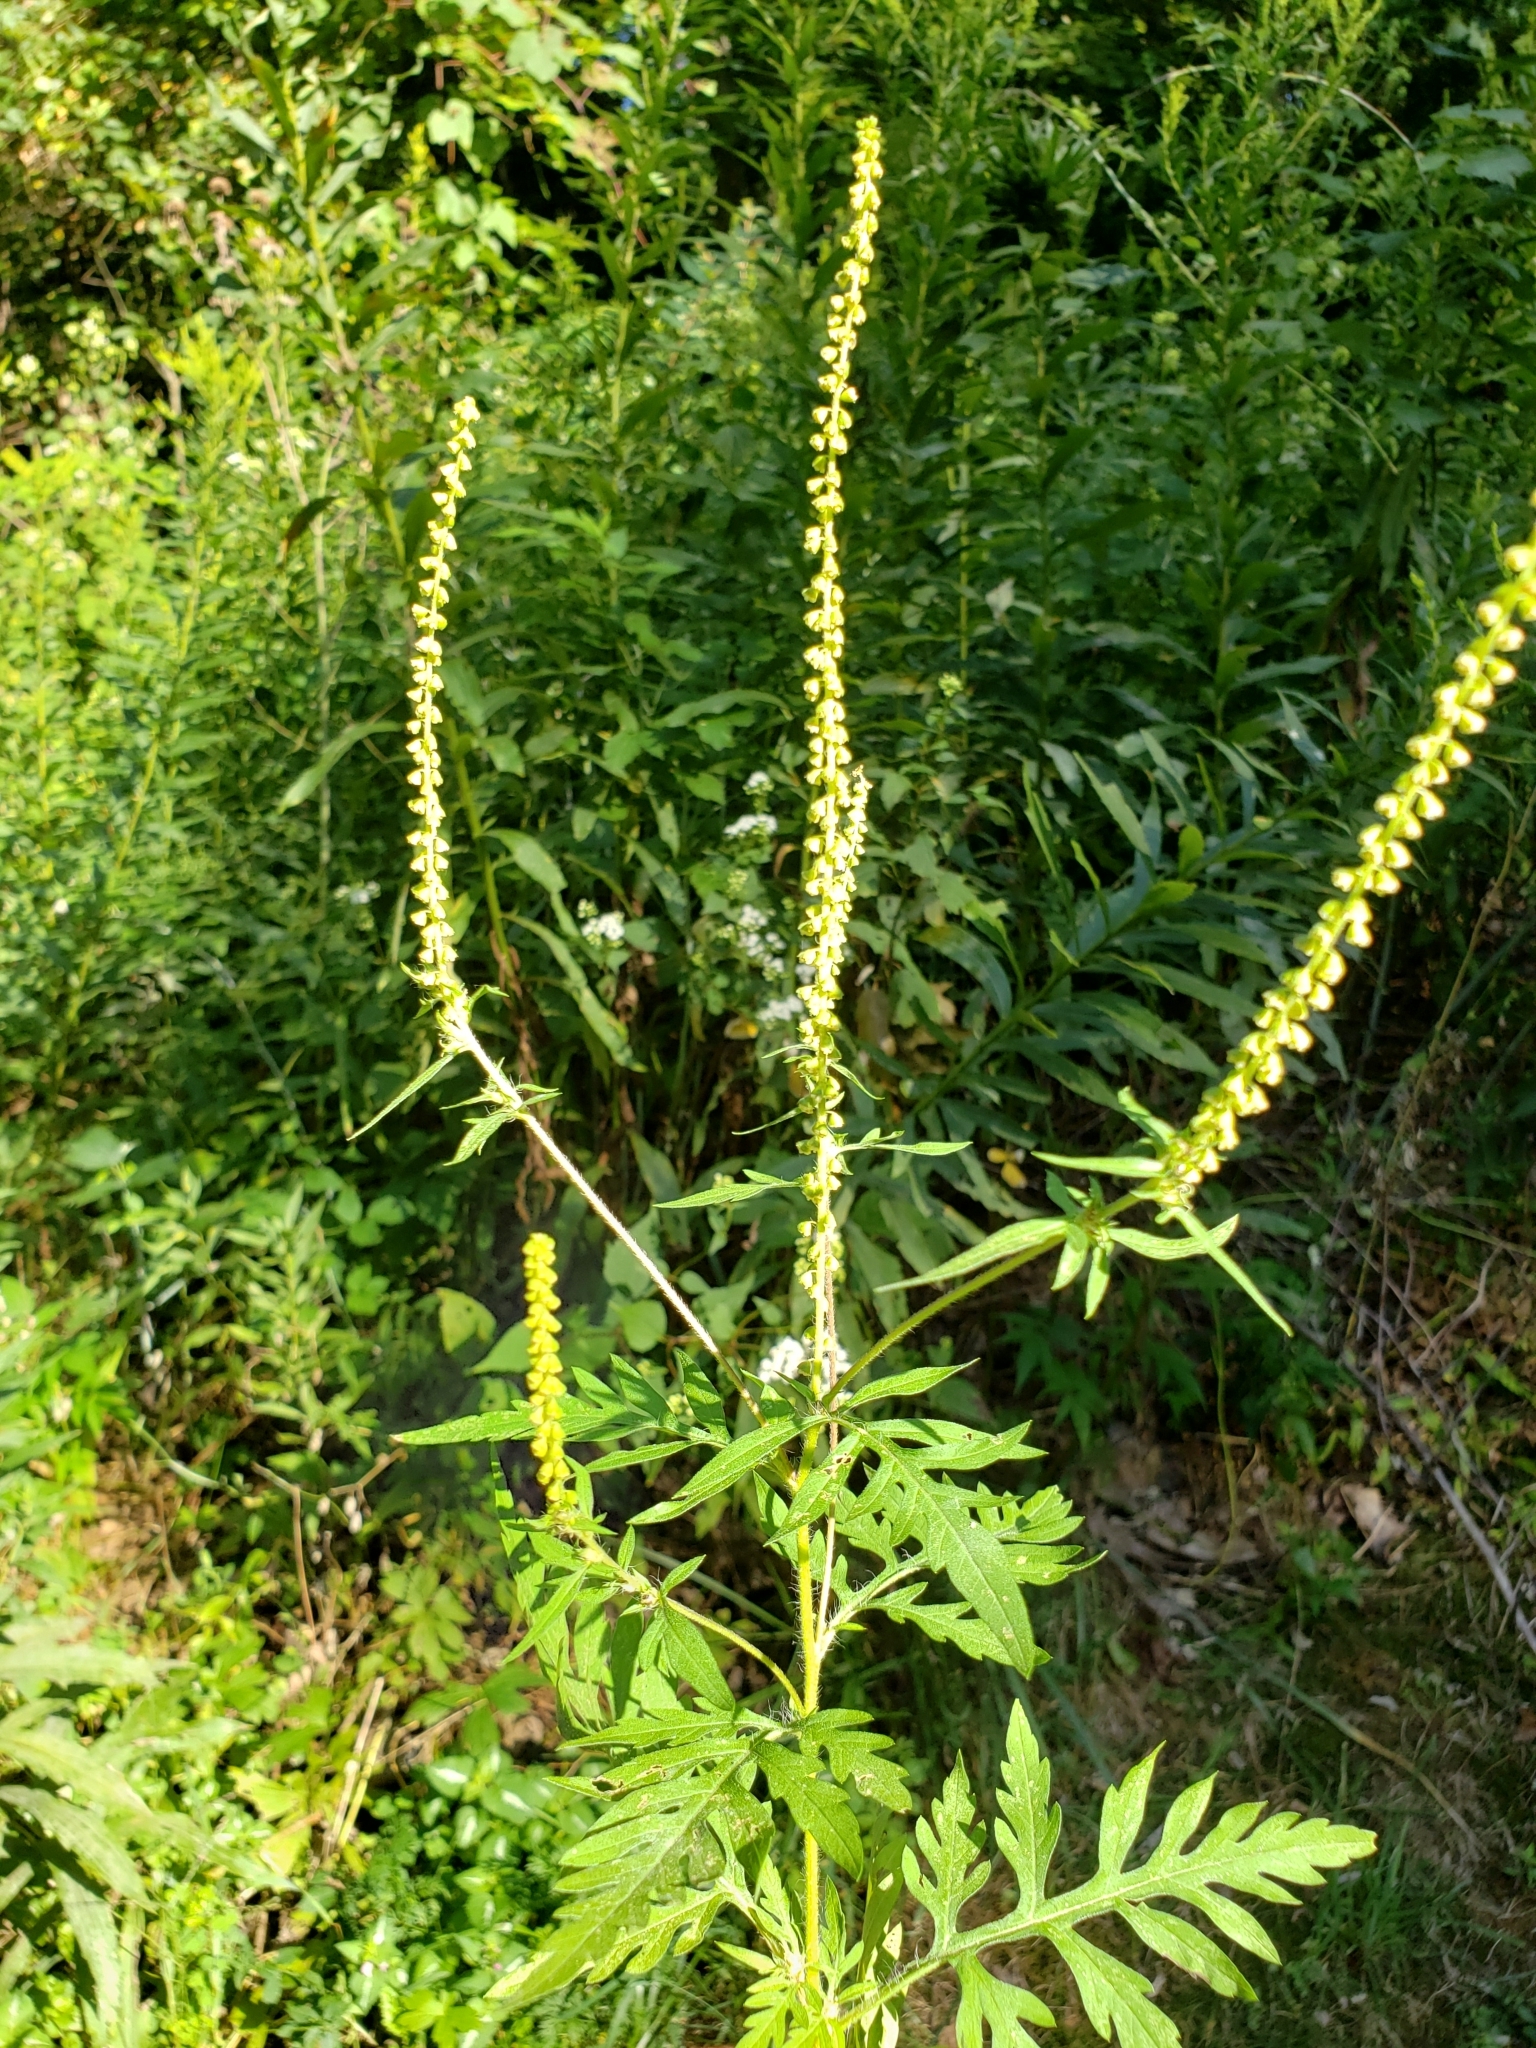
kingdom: Plantae
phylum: Tracheophyta
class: Magnoliopsida
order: Asterales
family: Asteraceae
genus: Ambrosia
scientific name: Ambrosia artemisiifolia
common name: Annual ragweed
